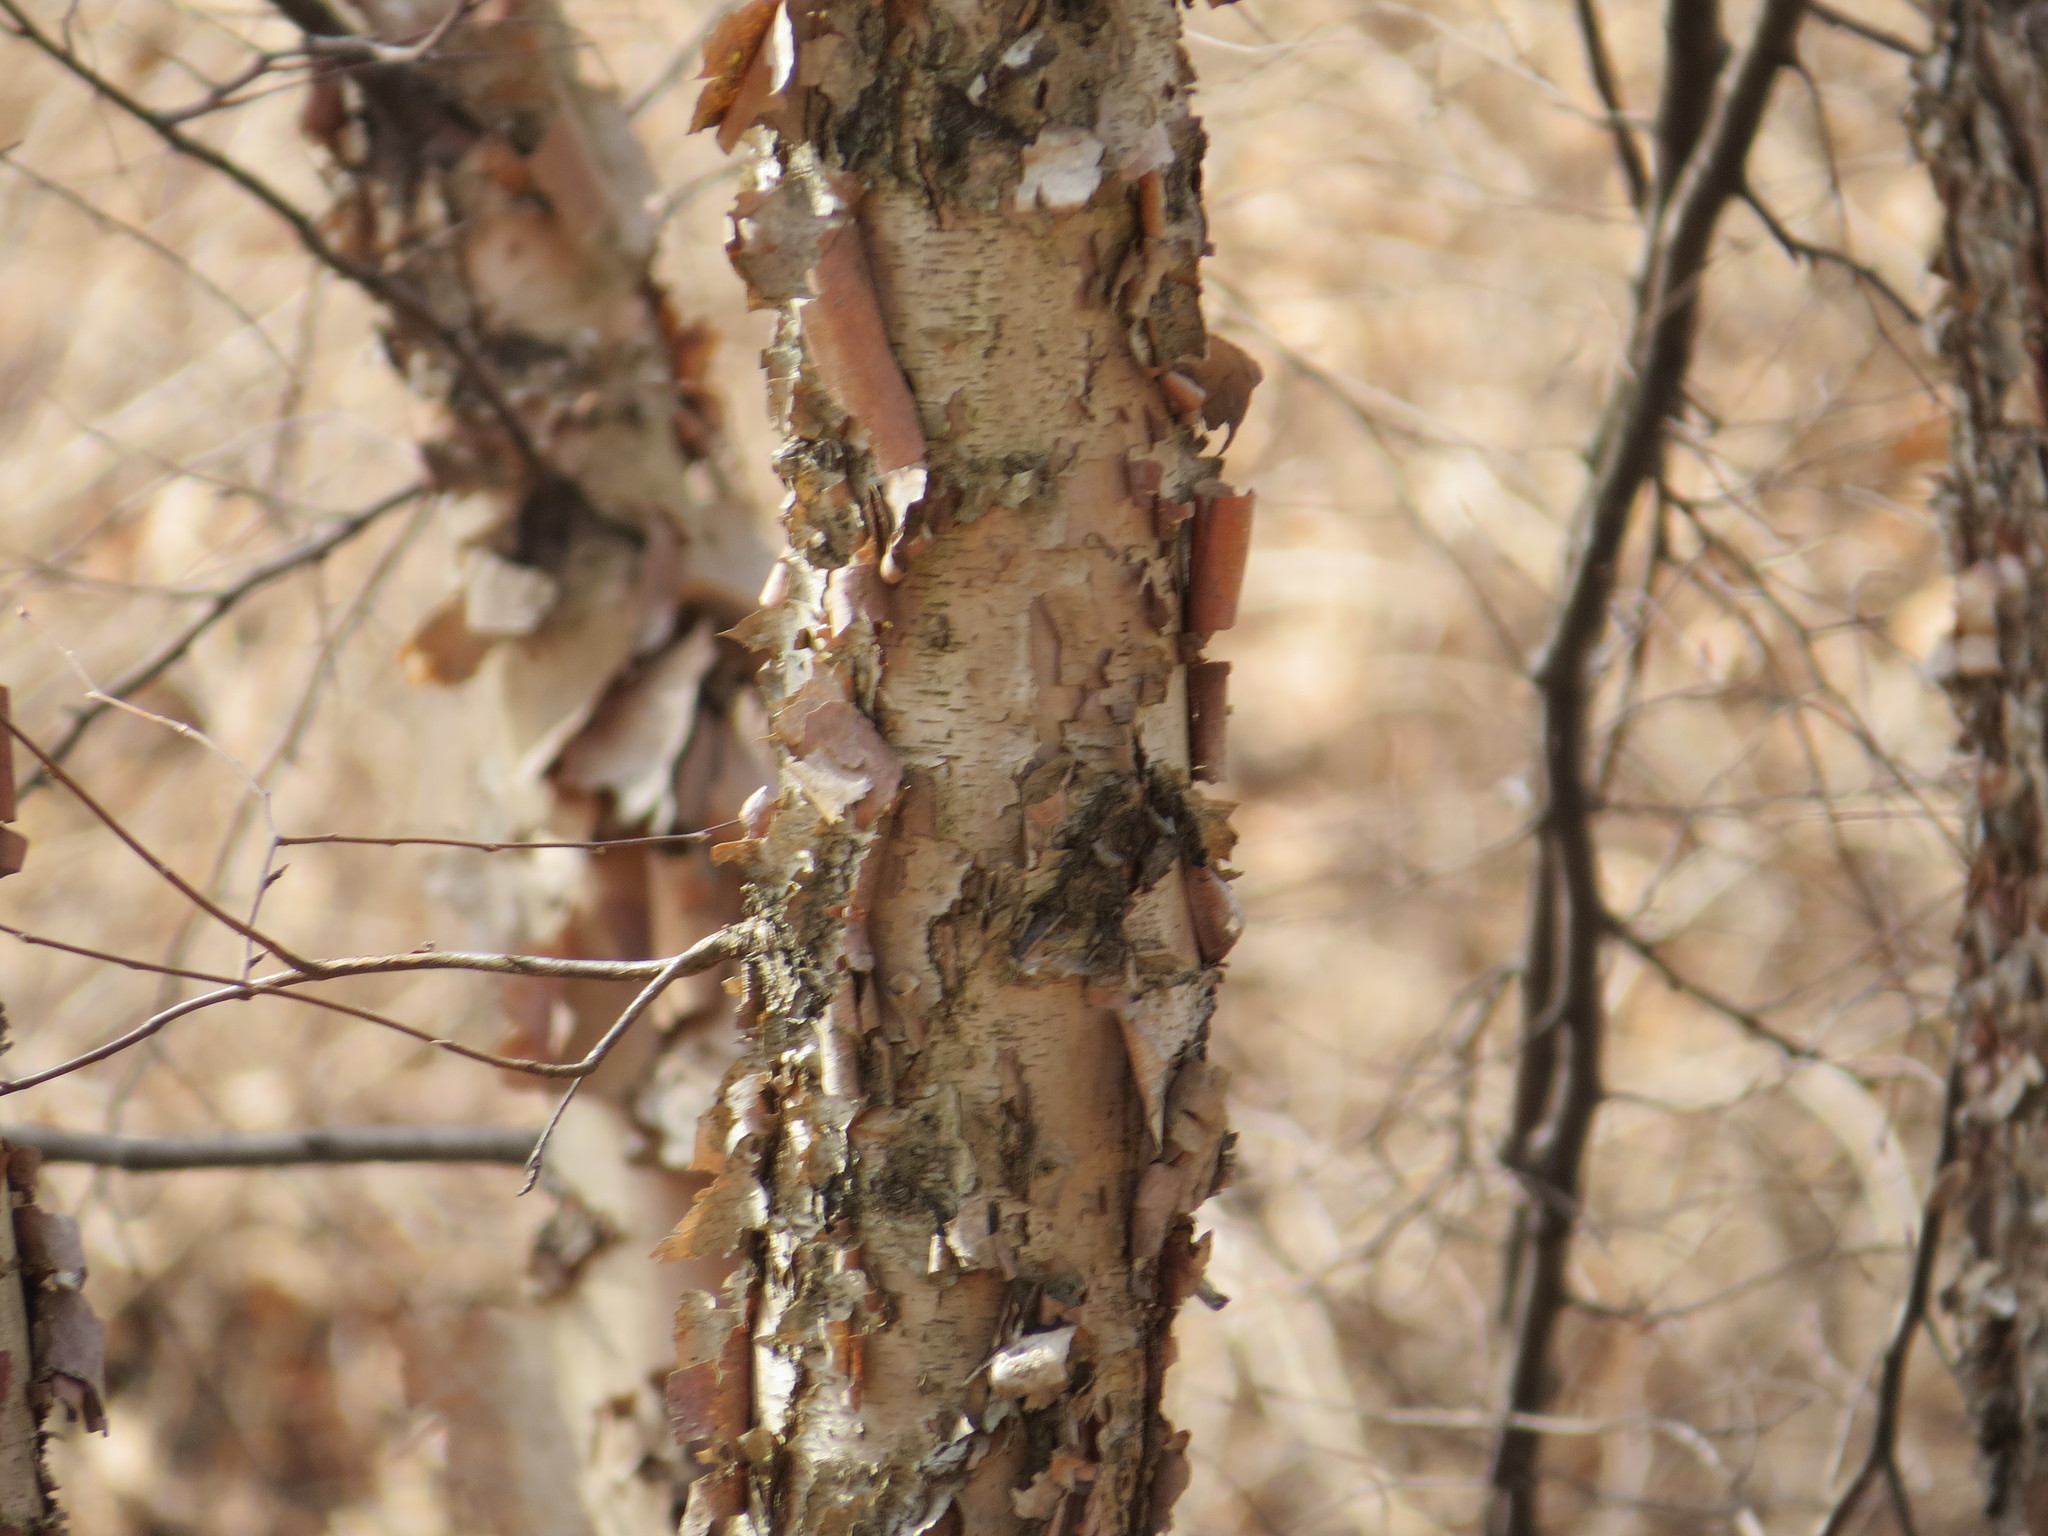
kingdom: Plantae
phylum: Tracheophyta
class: Magnoliopsida
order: Fagales
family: Betulaceae
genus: Betula
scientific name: Betula nigra
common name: Black birch
